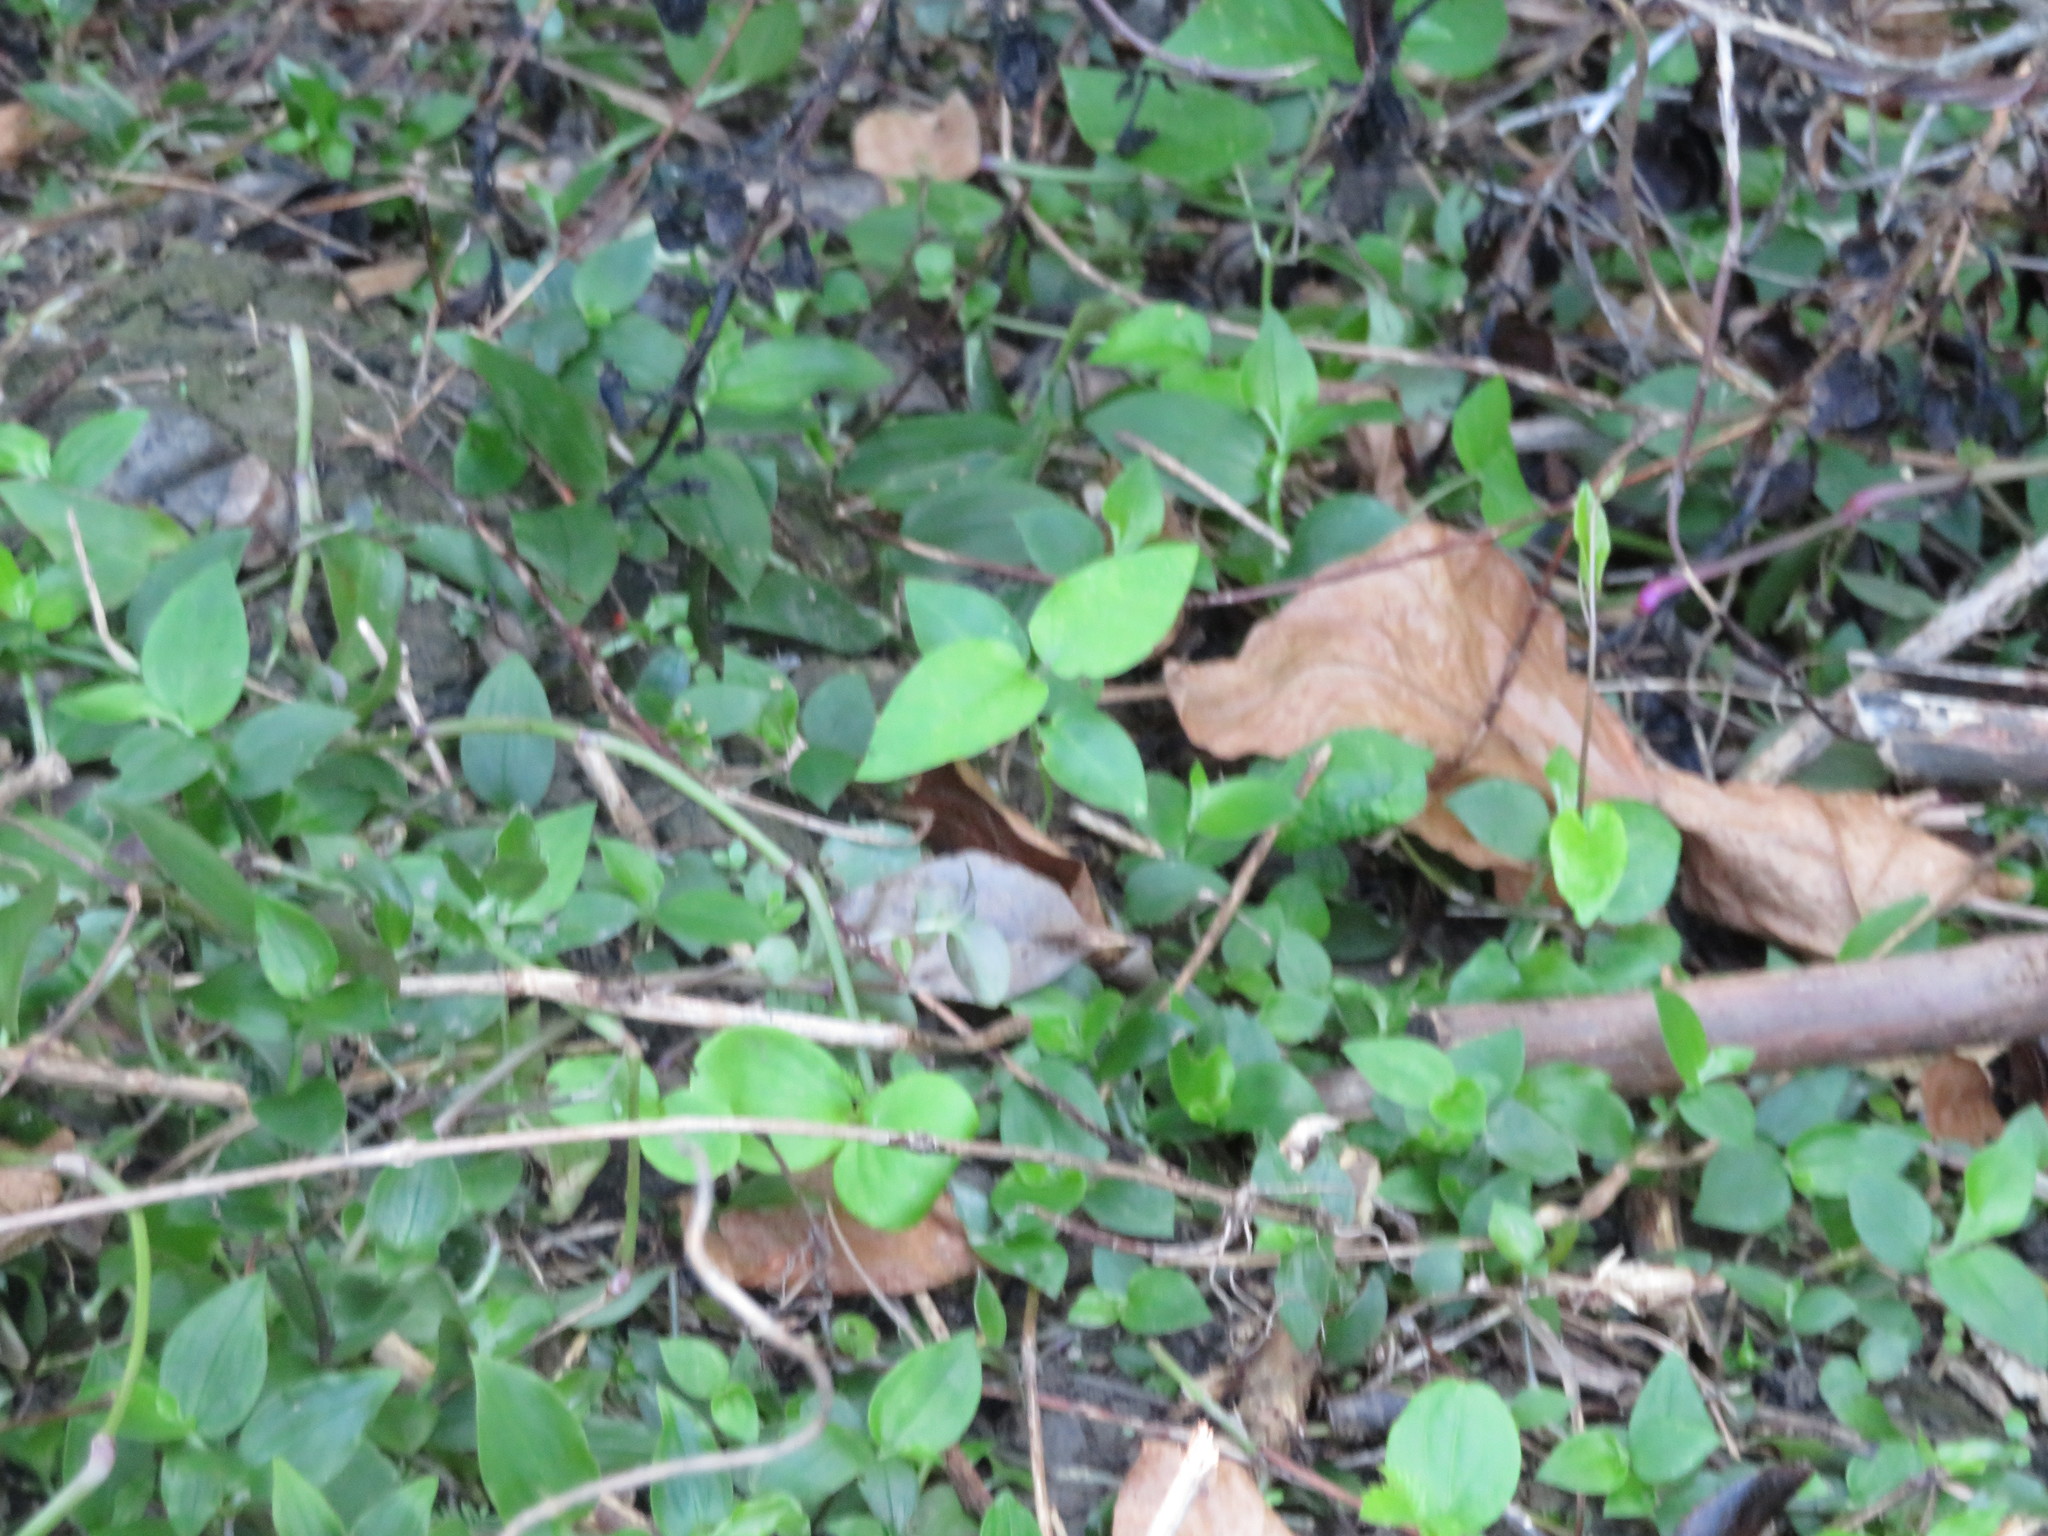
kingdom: Plantae
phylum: Tracheophyta
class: Magnoliopsida
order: Gentianales
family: Apocynaceae
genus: Araujia
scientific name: Araujia sericifera
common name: White bladderflower
